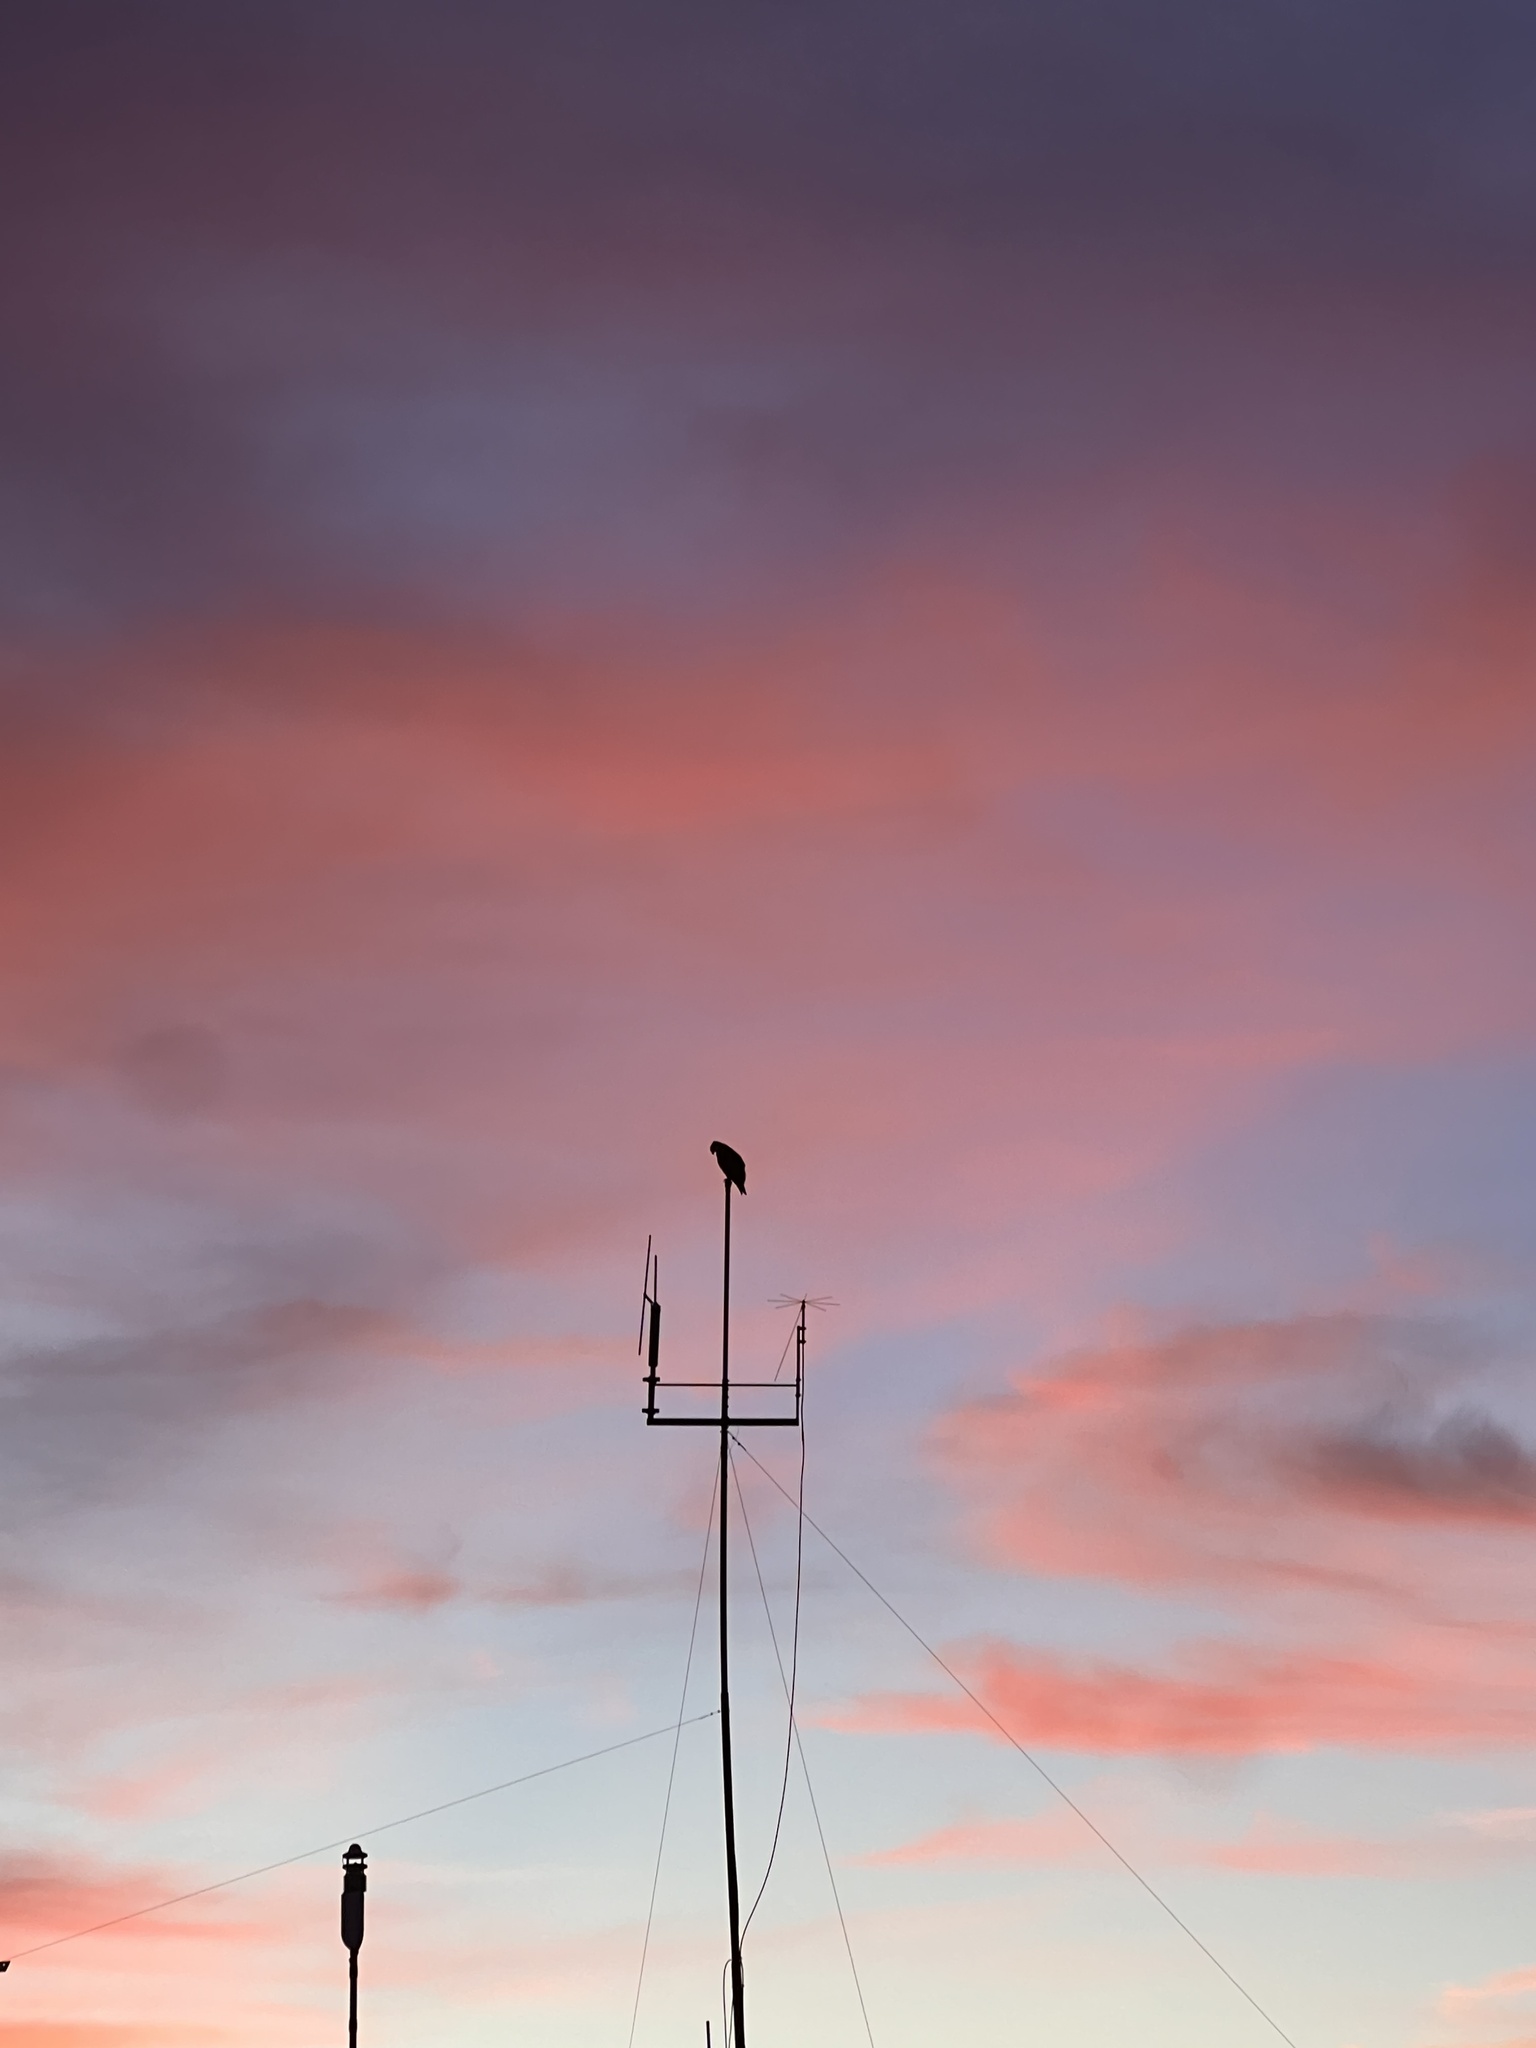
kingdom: Animalia
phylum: Chordata
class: Aves
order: Accipitriformes
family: Pandionidae
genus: Pandion
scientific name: Pandion haliaetus
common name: Osprey
